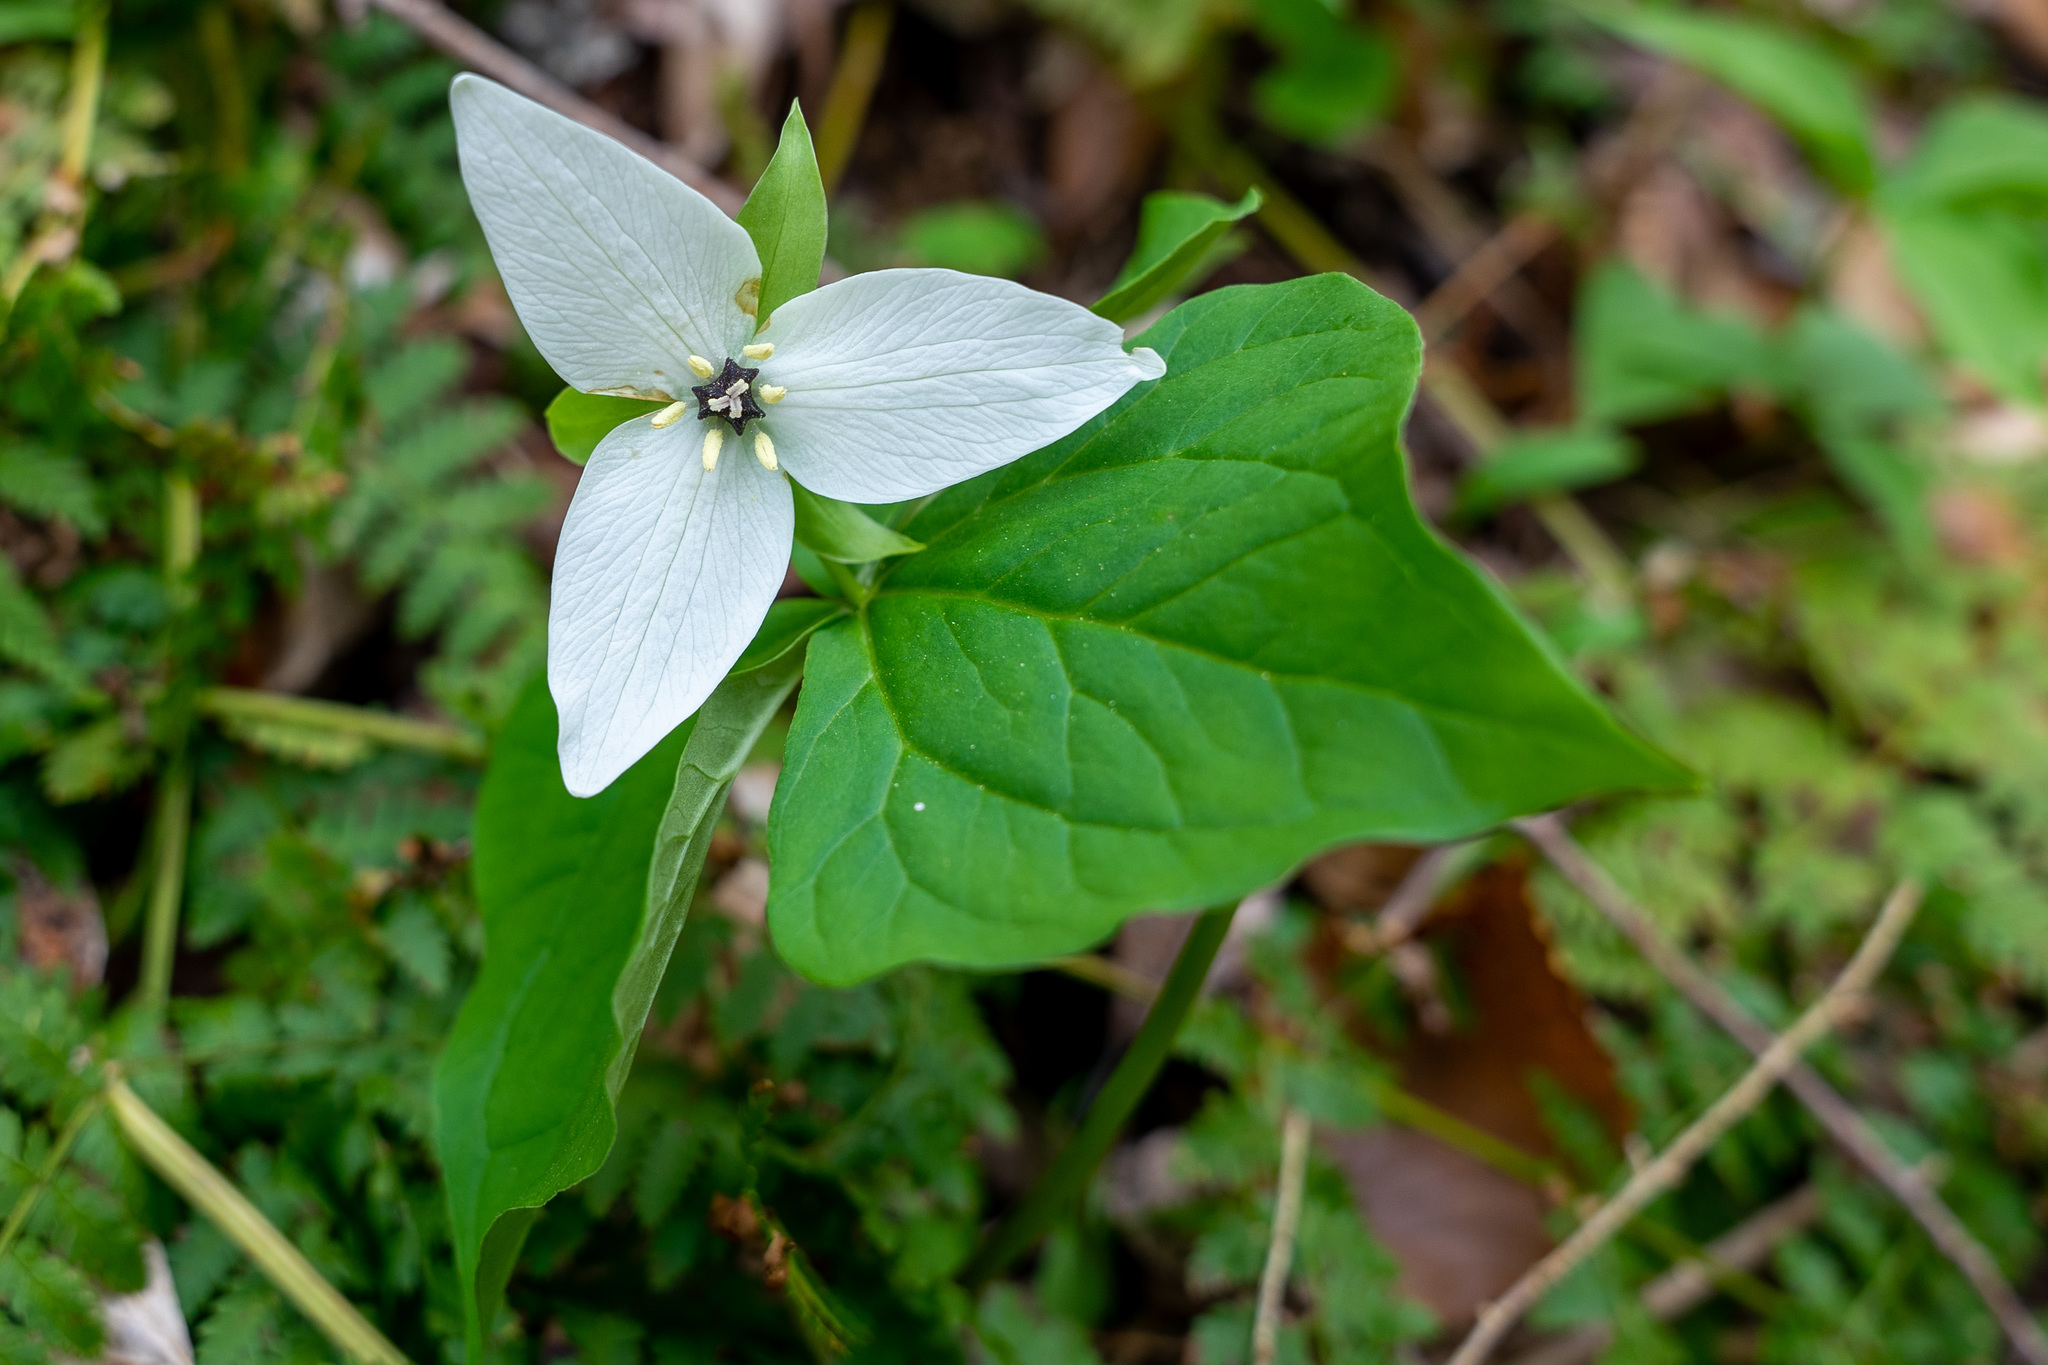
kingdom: Plantae
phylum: Tracheophyta
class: Liliopsida
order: Liliales
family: Melanthiaceae
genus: Trillium
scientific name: Trillium erectum
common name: Purple trillium
